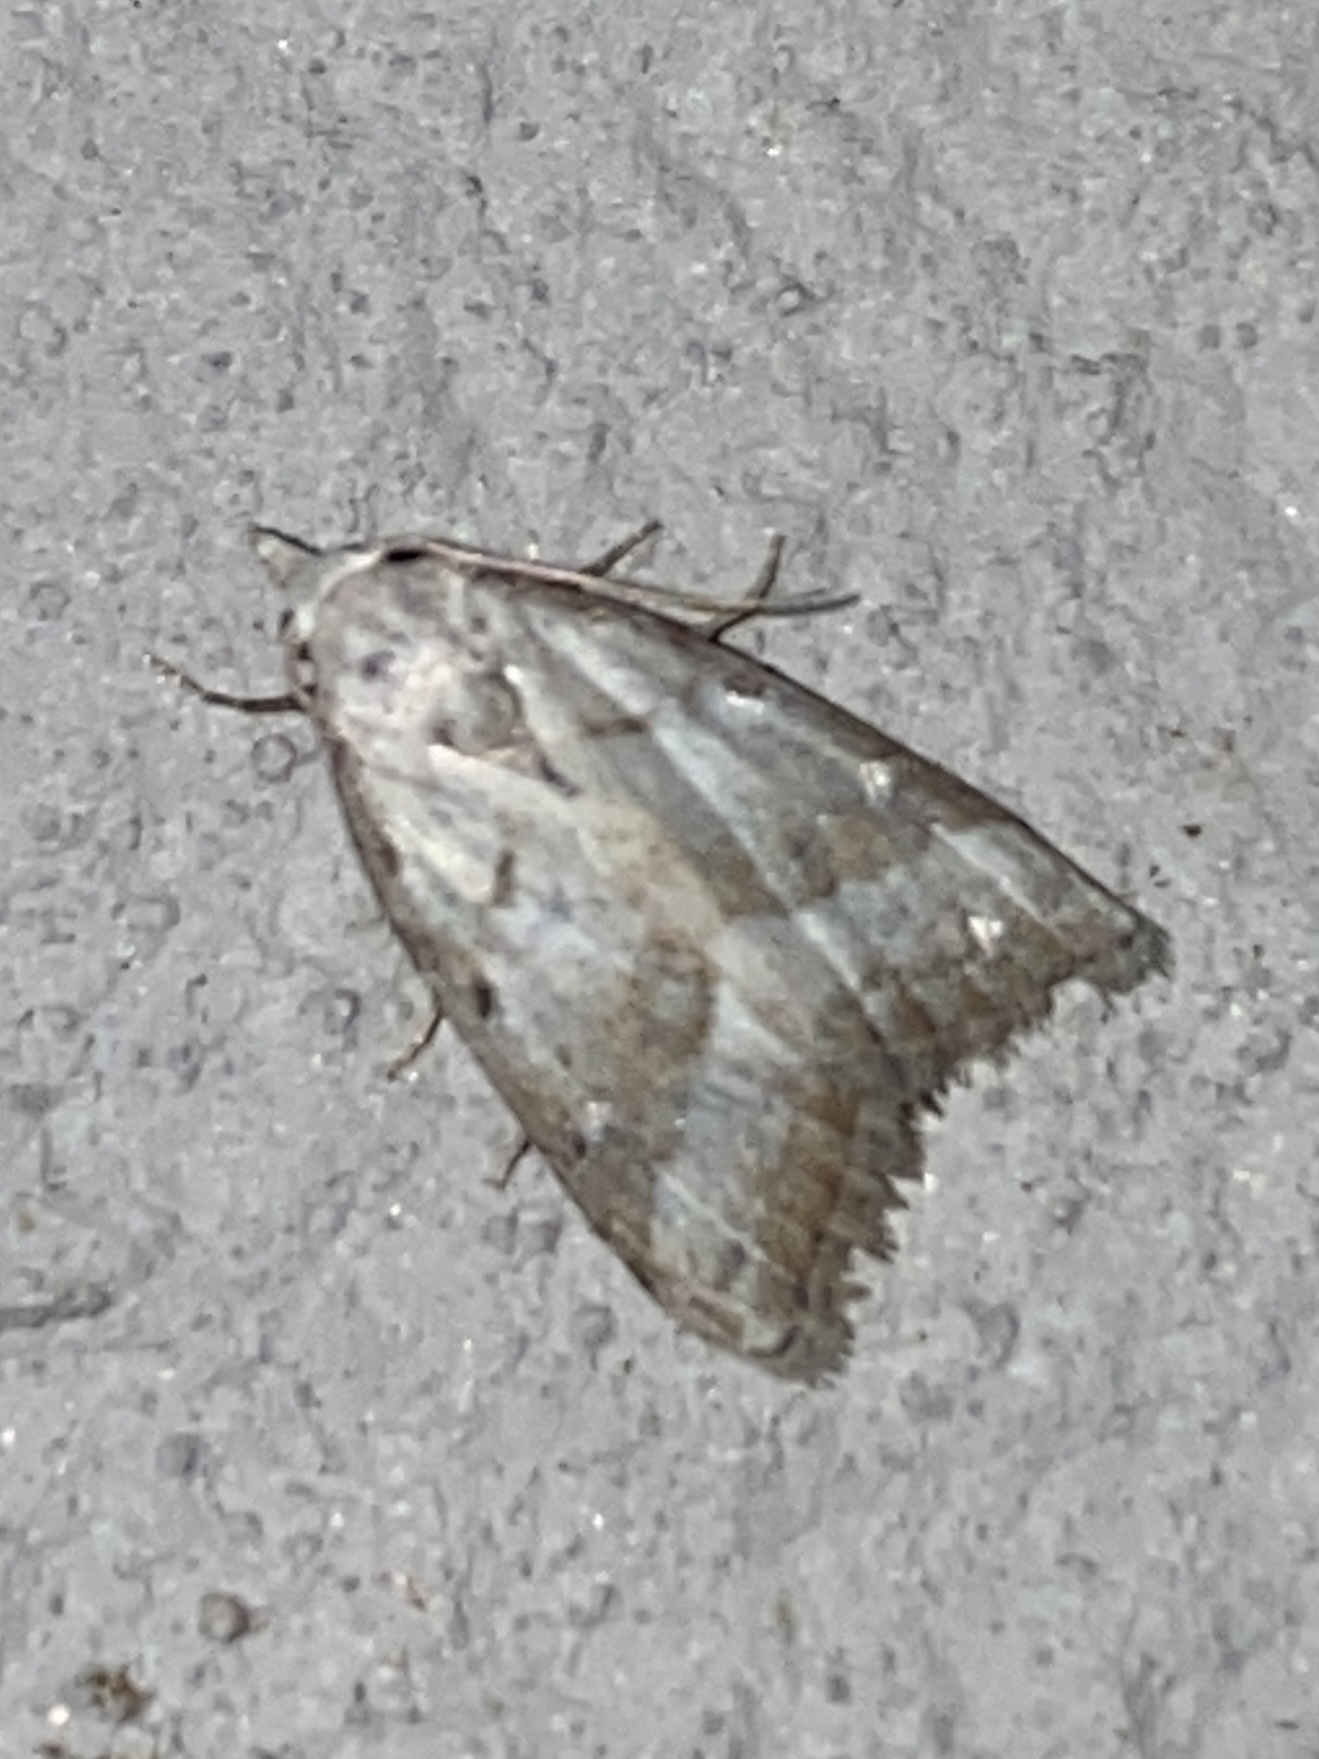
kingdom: Animalia
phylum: Arthropoda
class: Insecta
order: Lepidoptera
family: Nolidae
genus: Nola
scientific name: Nola tineoides
